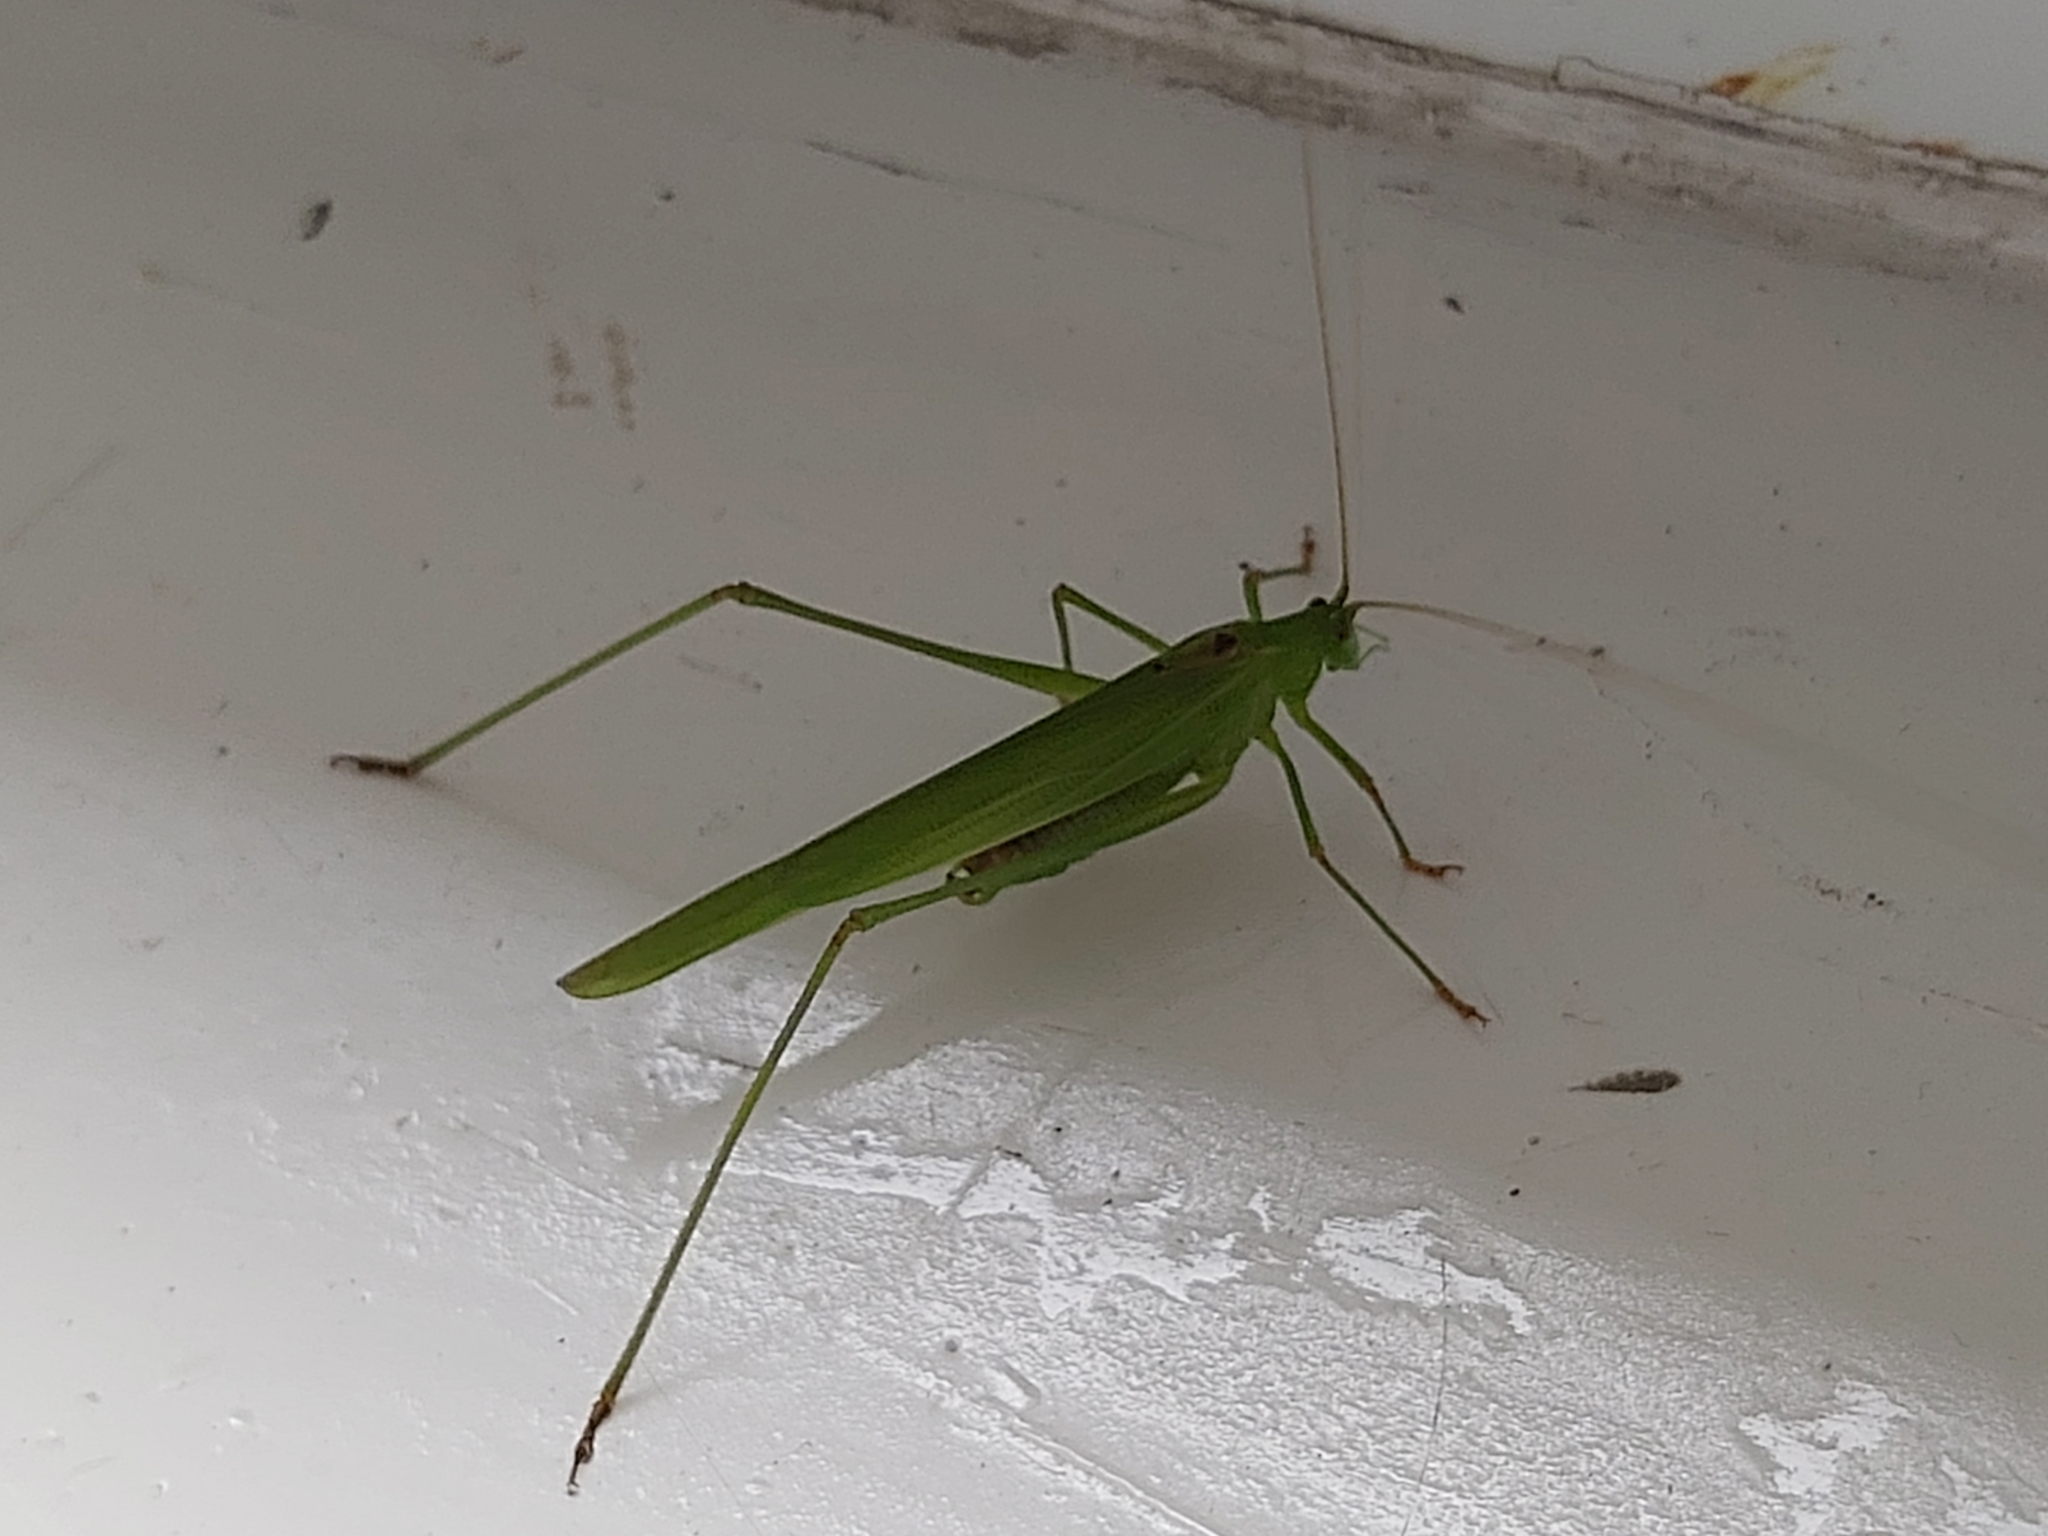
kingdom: Animalia
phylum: Arthropoda
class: Insecta
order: Orthoptera
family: Tettigoniidae
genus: Phaneroptera
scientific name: Phaneroptera falcata
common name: Sickle-bearing bush-cricket
